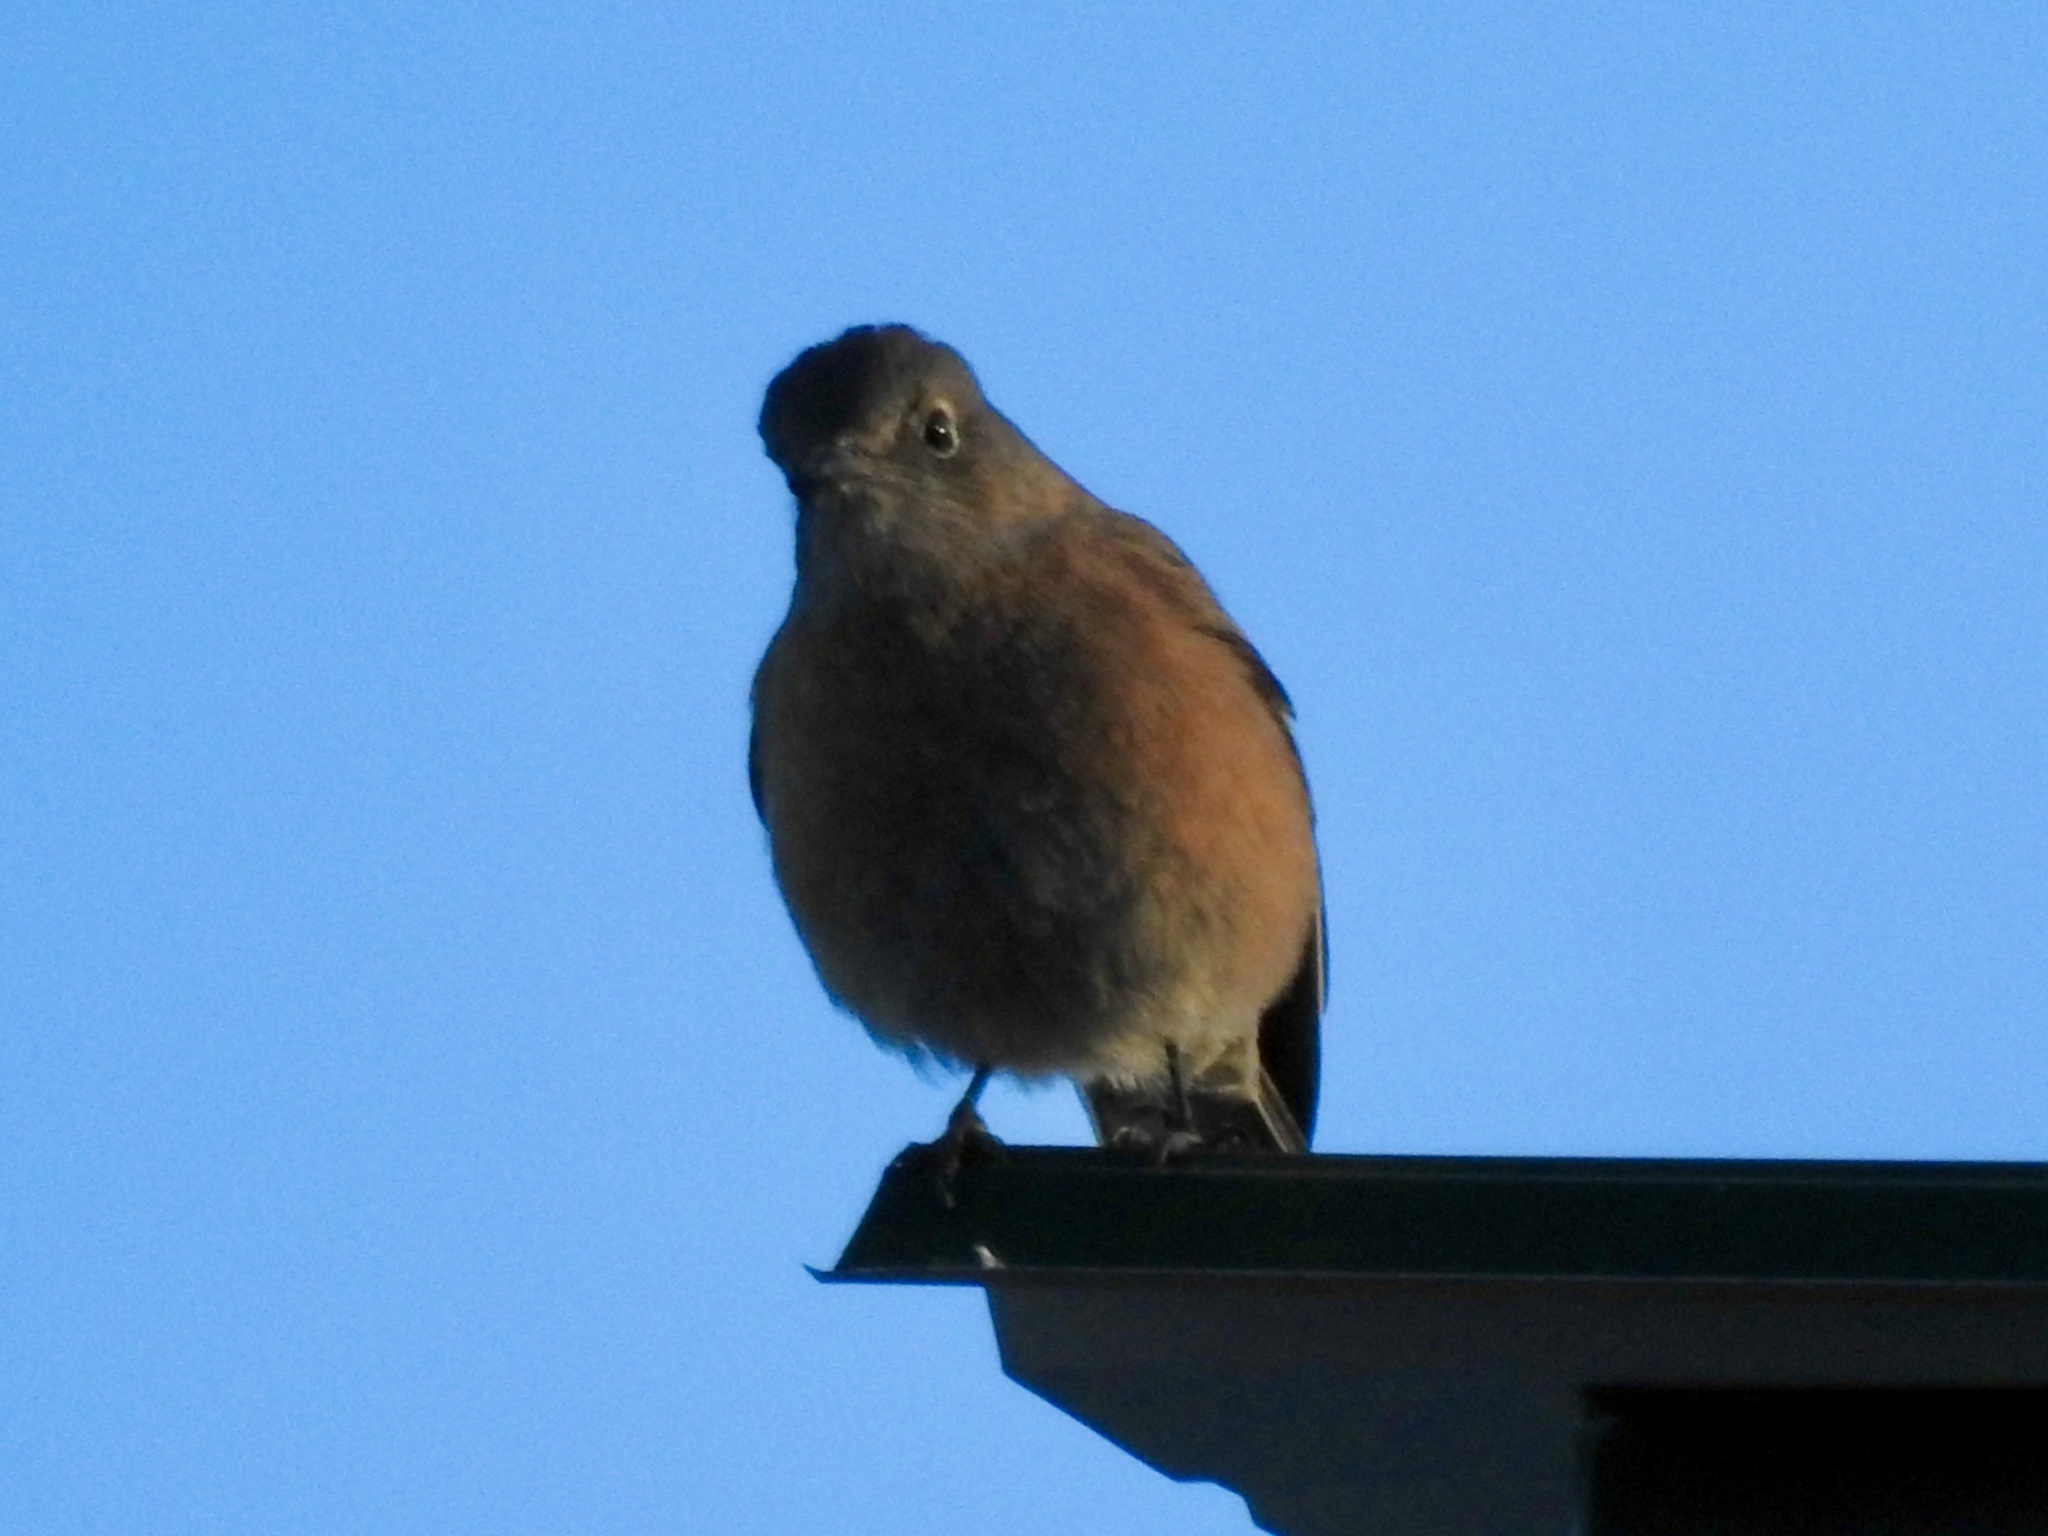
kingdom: Animalia
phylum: Chordata
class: Aves
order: Passeriformes
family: Turdidae
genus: Sialia
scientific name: Sialia mexicana
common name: Western bluebird
